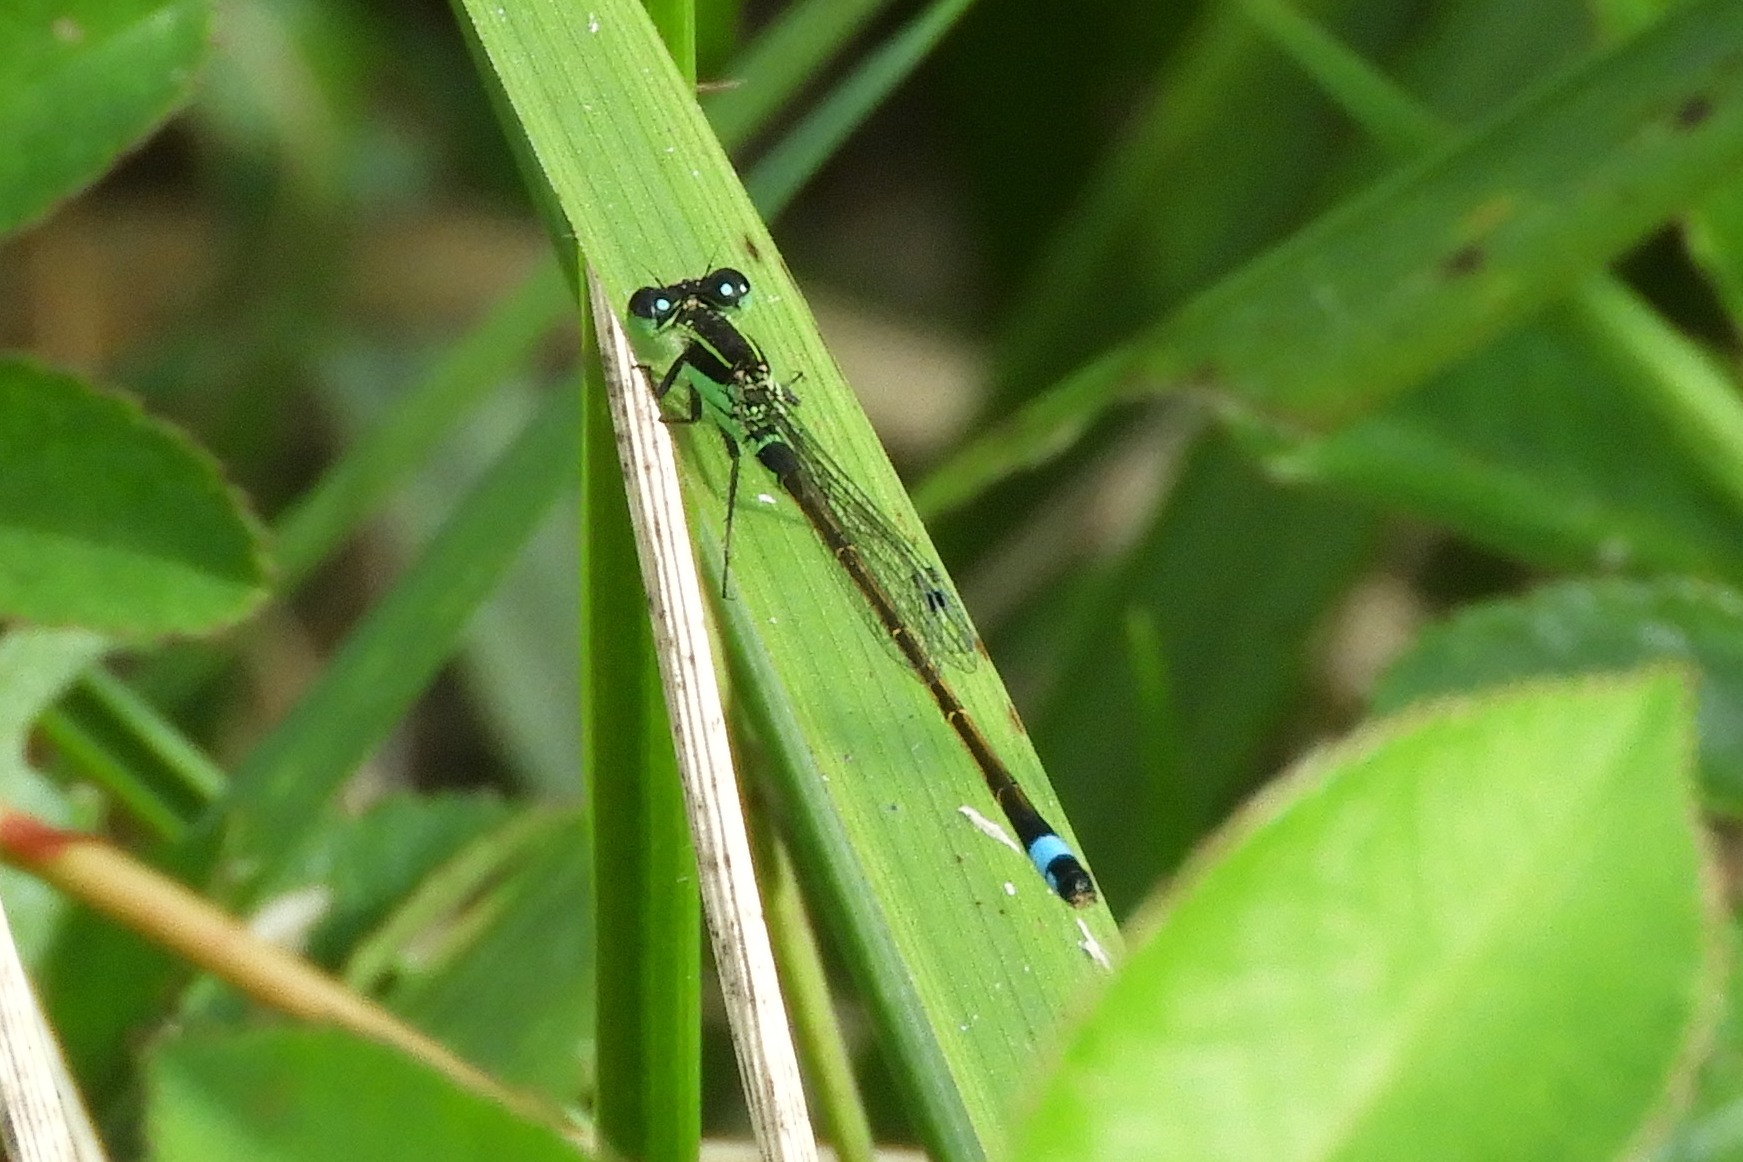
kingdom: Animalia
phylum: Arthropoda
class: Insecta
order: Odonata
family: Coenagrionidae
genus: Ischnura
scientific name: Ischnura ramburii
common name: Rambur's forktail
